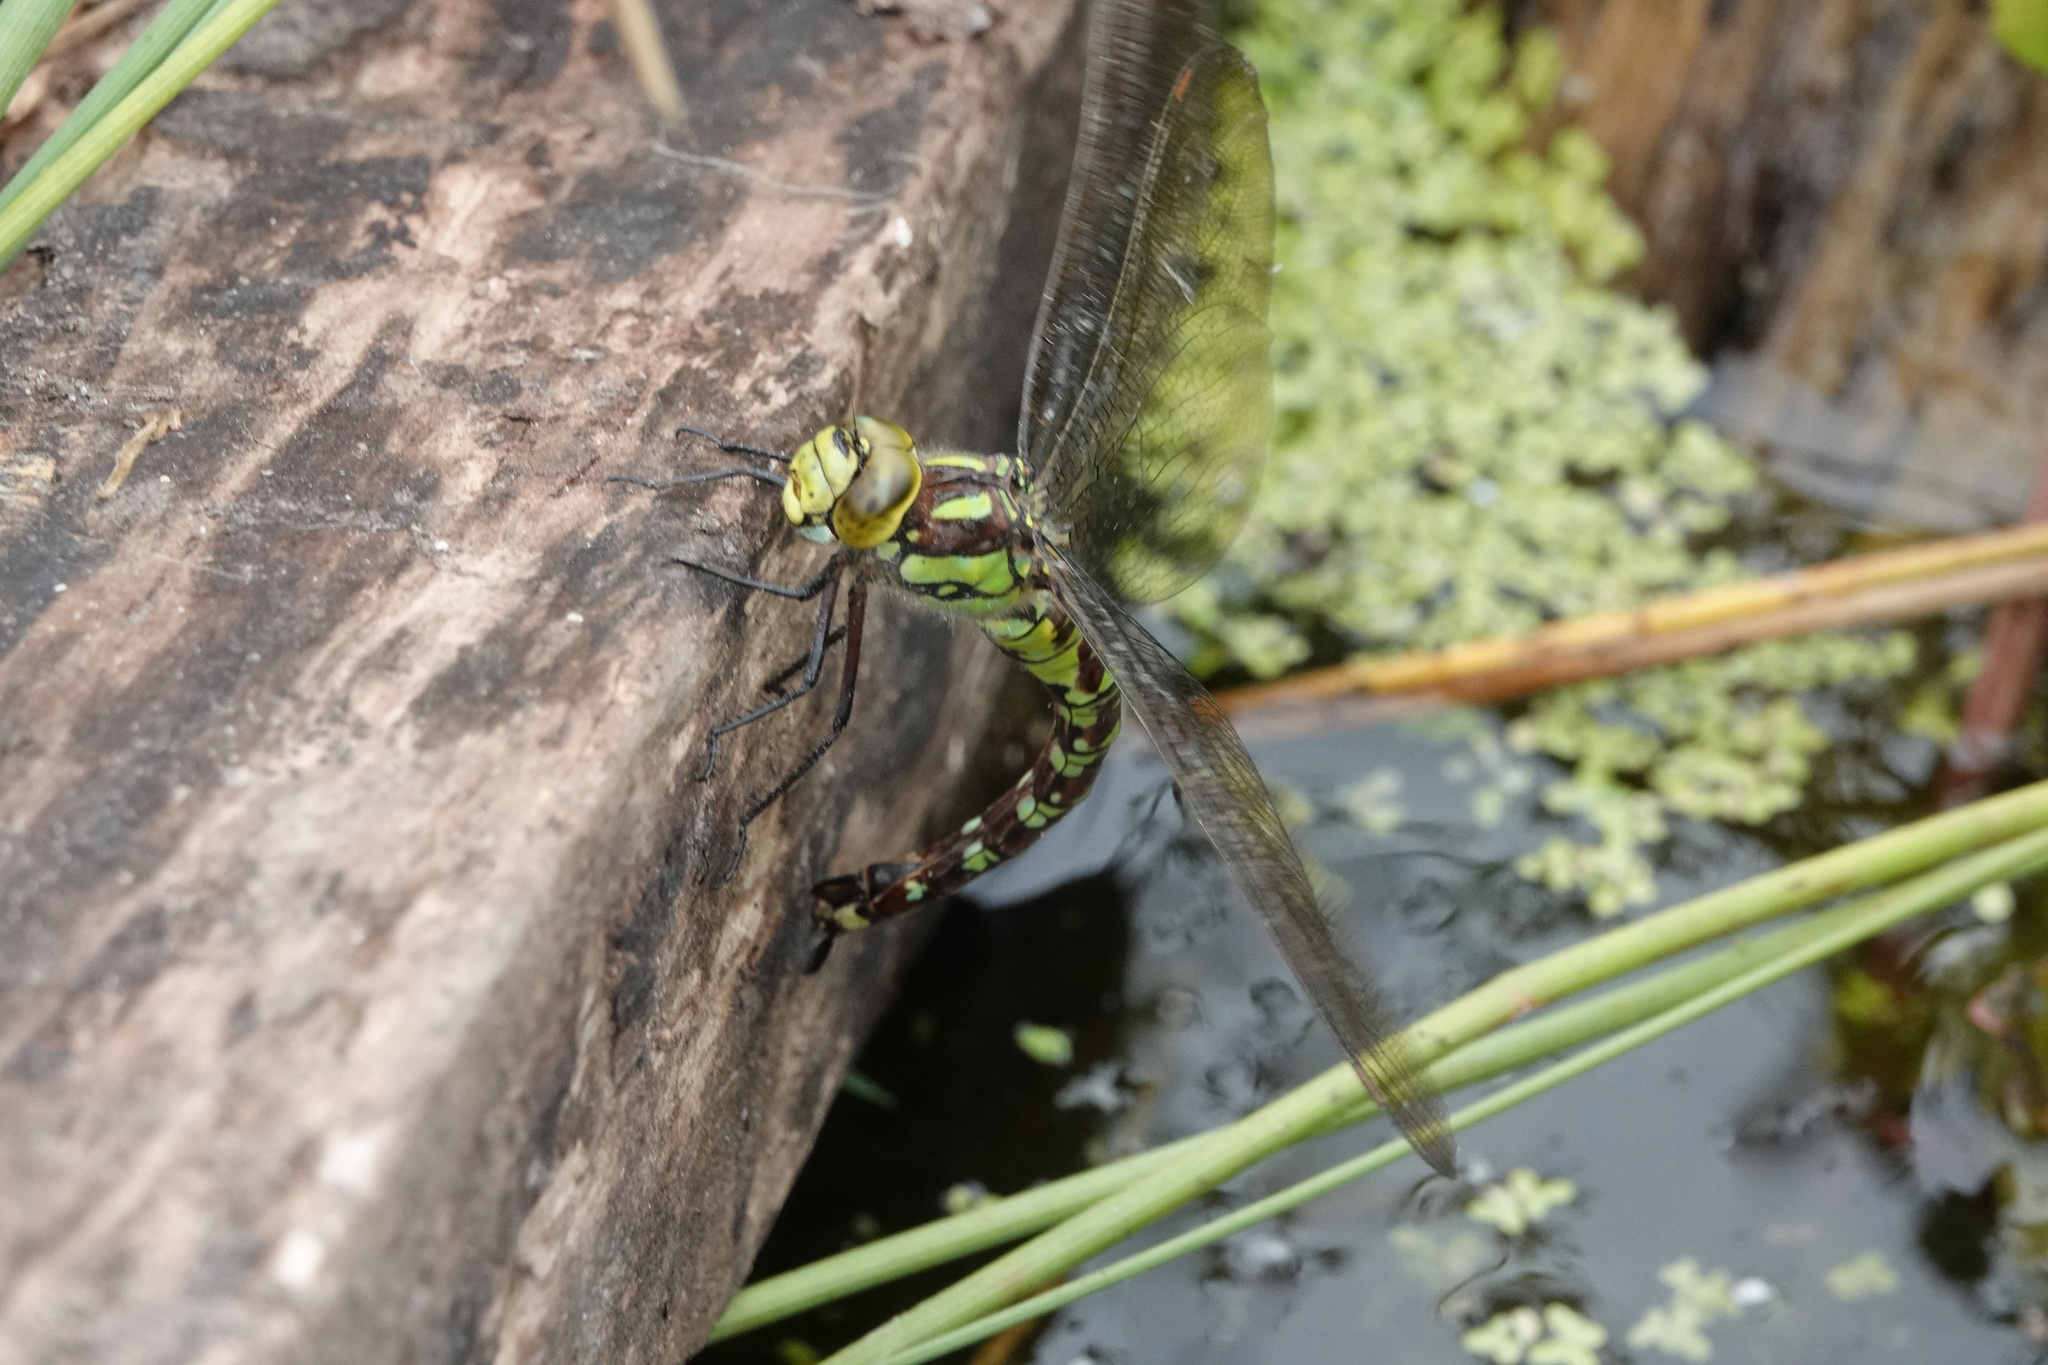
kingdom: Animalia
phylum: Arthropoda
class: Insecta
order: Odonata
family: Aeshnidae
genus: Aeshna
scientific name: Aeshna cyanea
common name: Southern hawker
